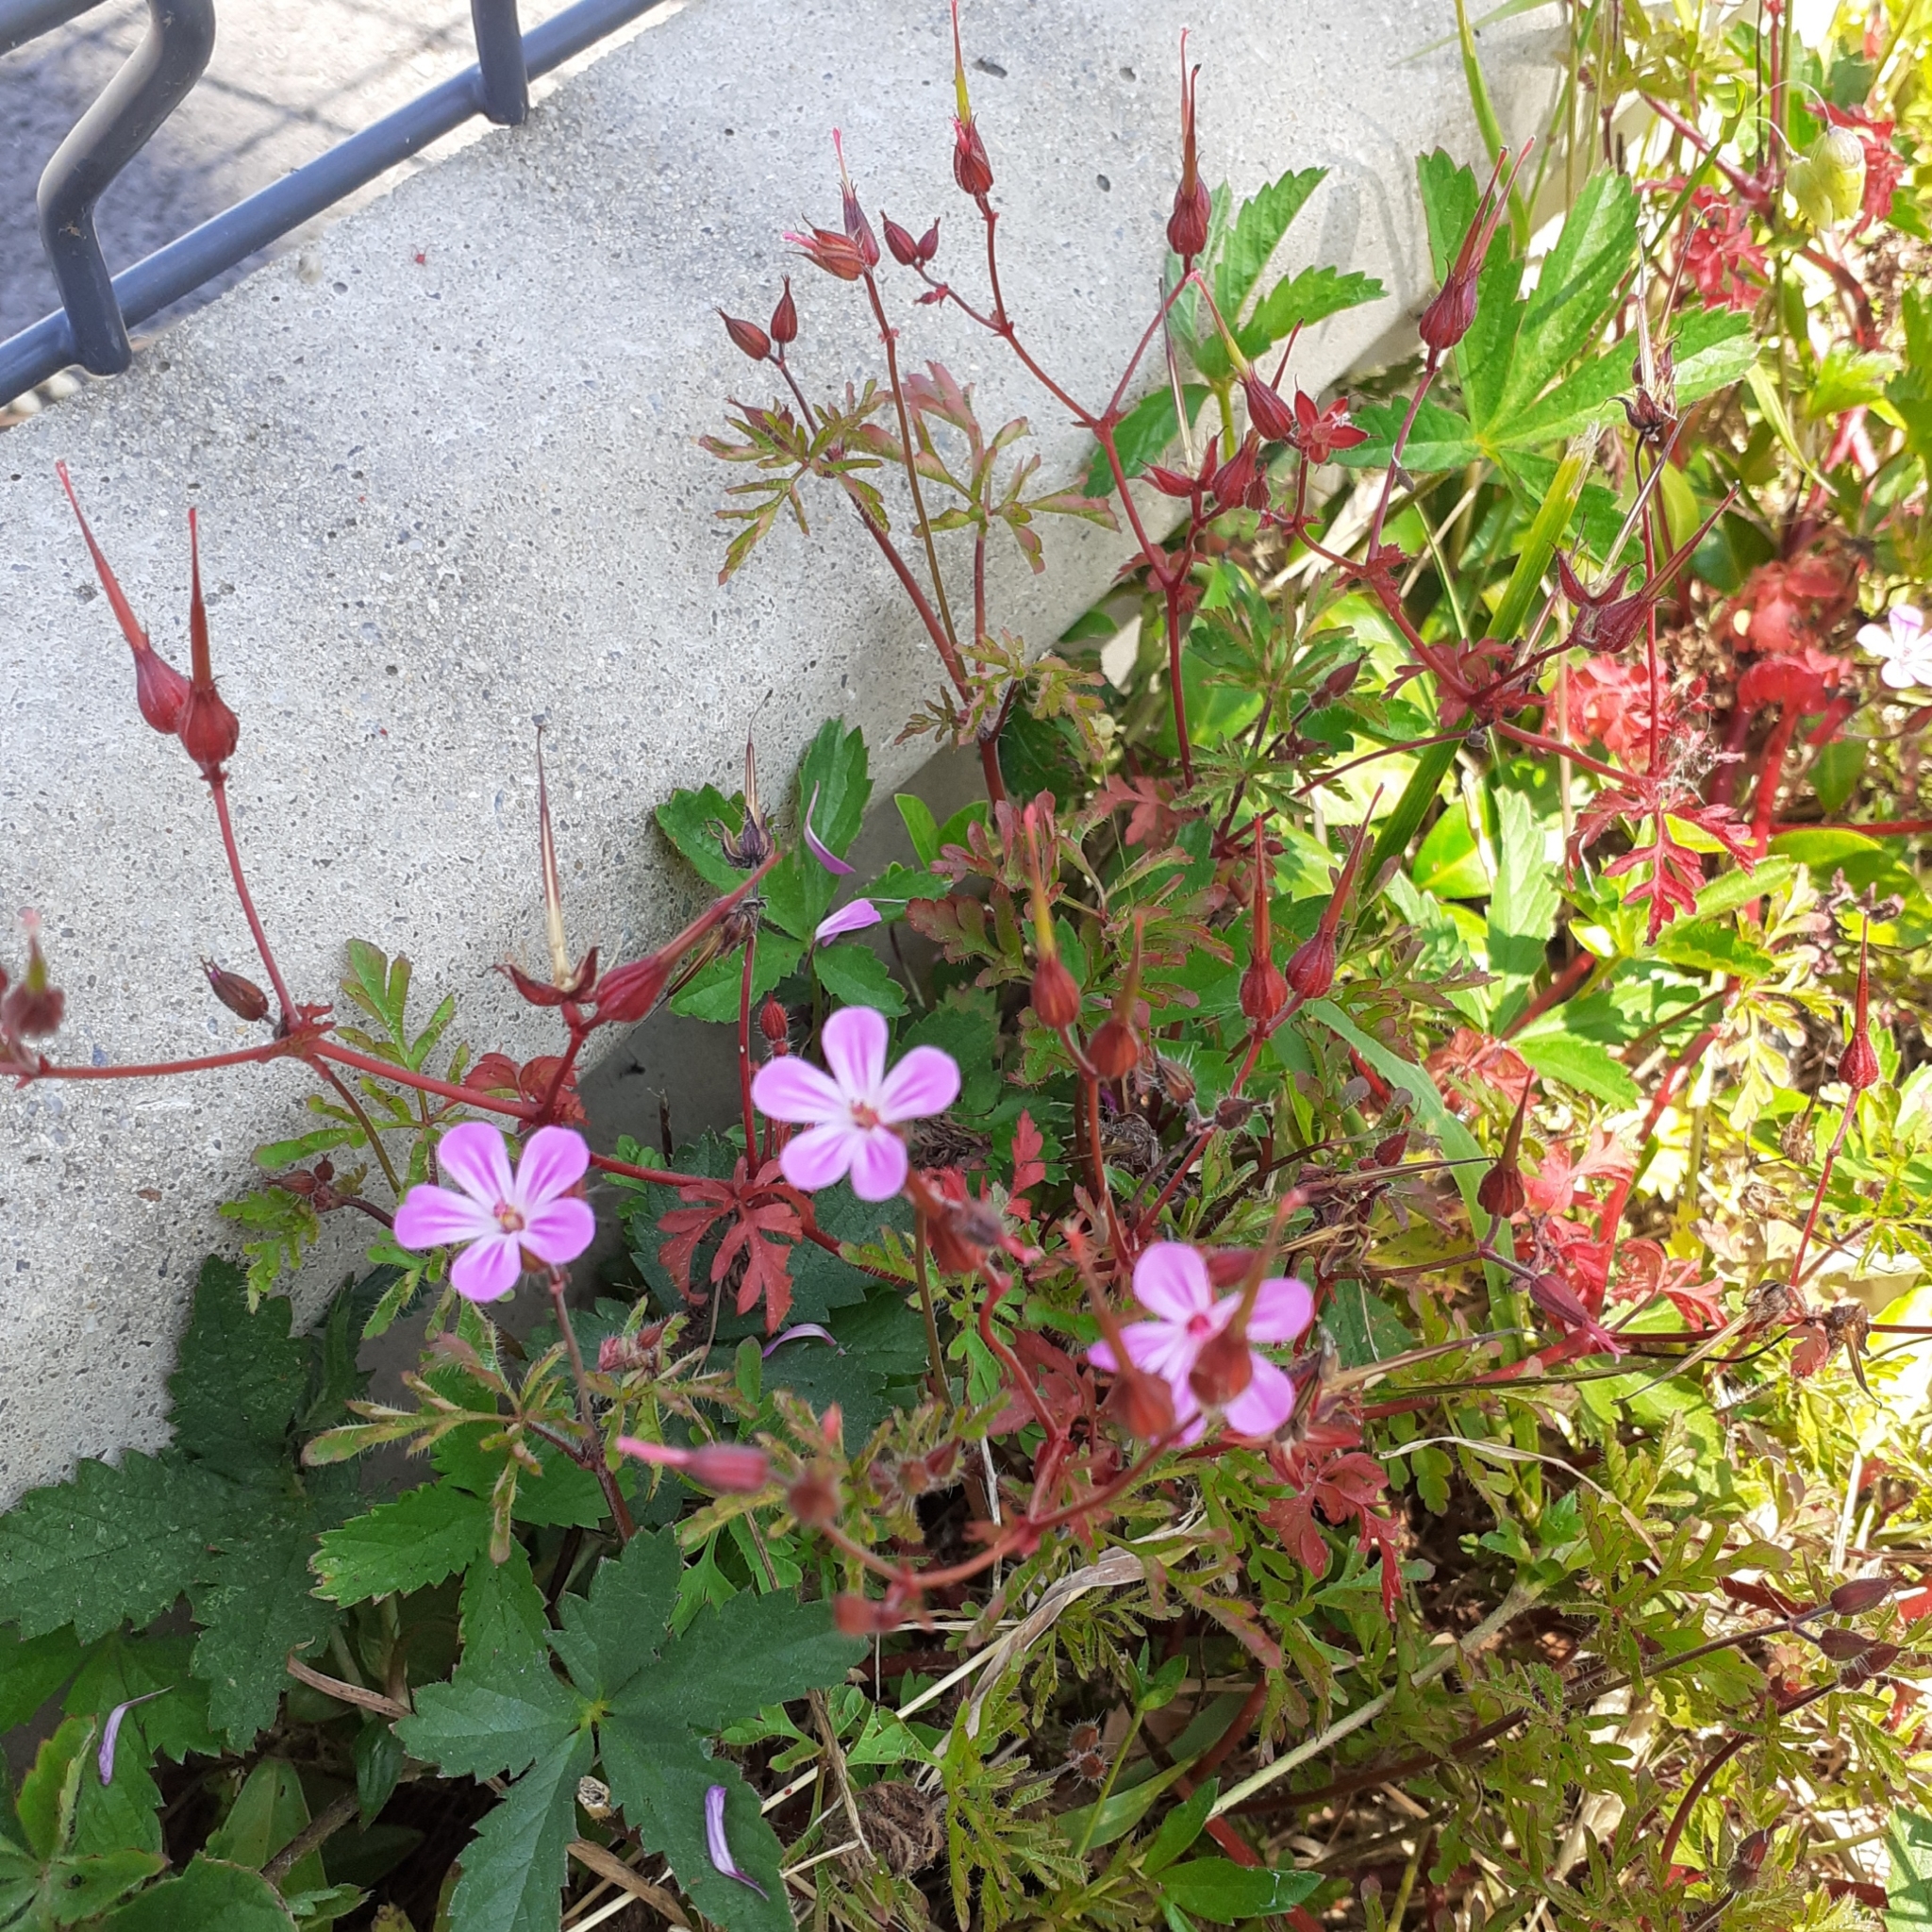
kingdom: Plantae
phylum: Tracheophyta
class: Magnoliopsida
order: Geraniales
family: Geraniaceae
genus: Geranium
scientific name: Geranium robertianum
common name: Herb-robert
